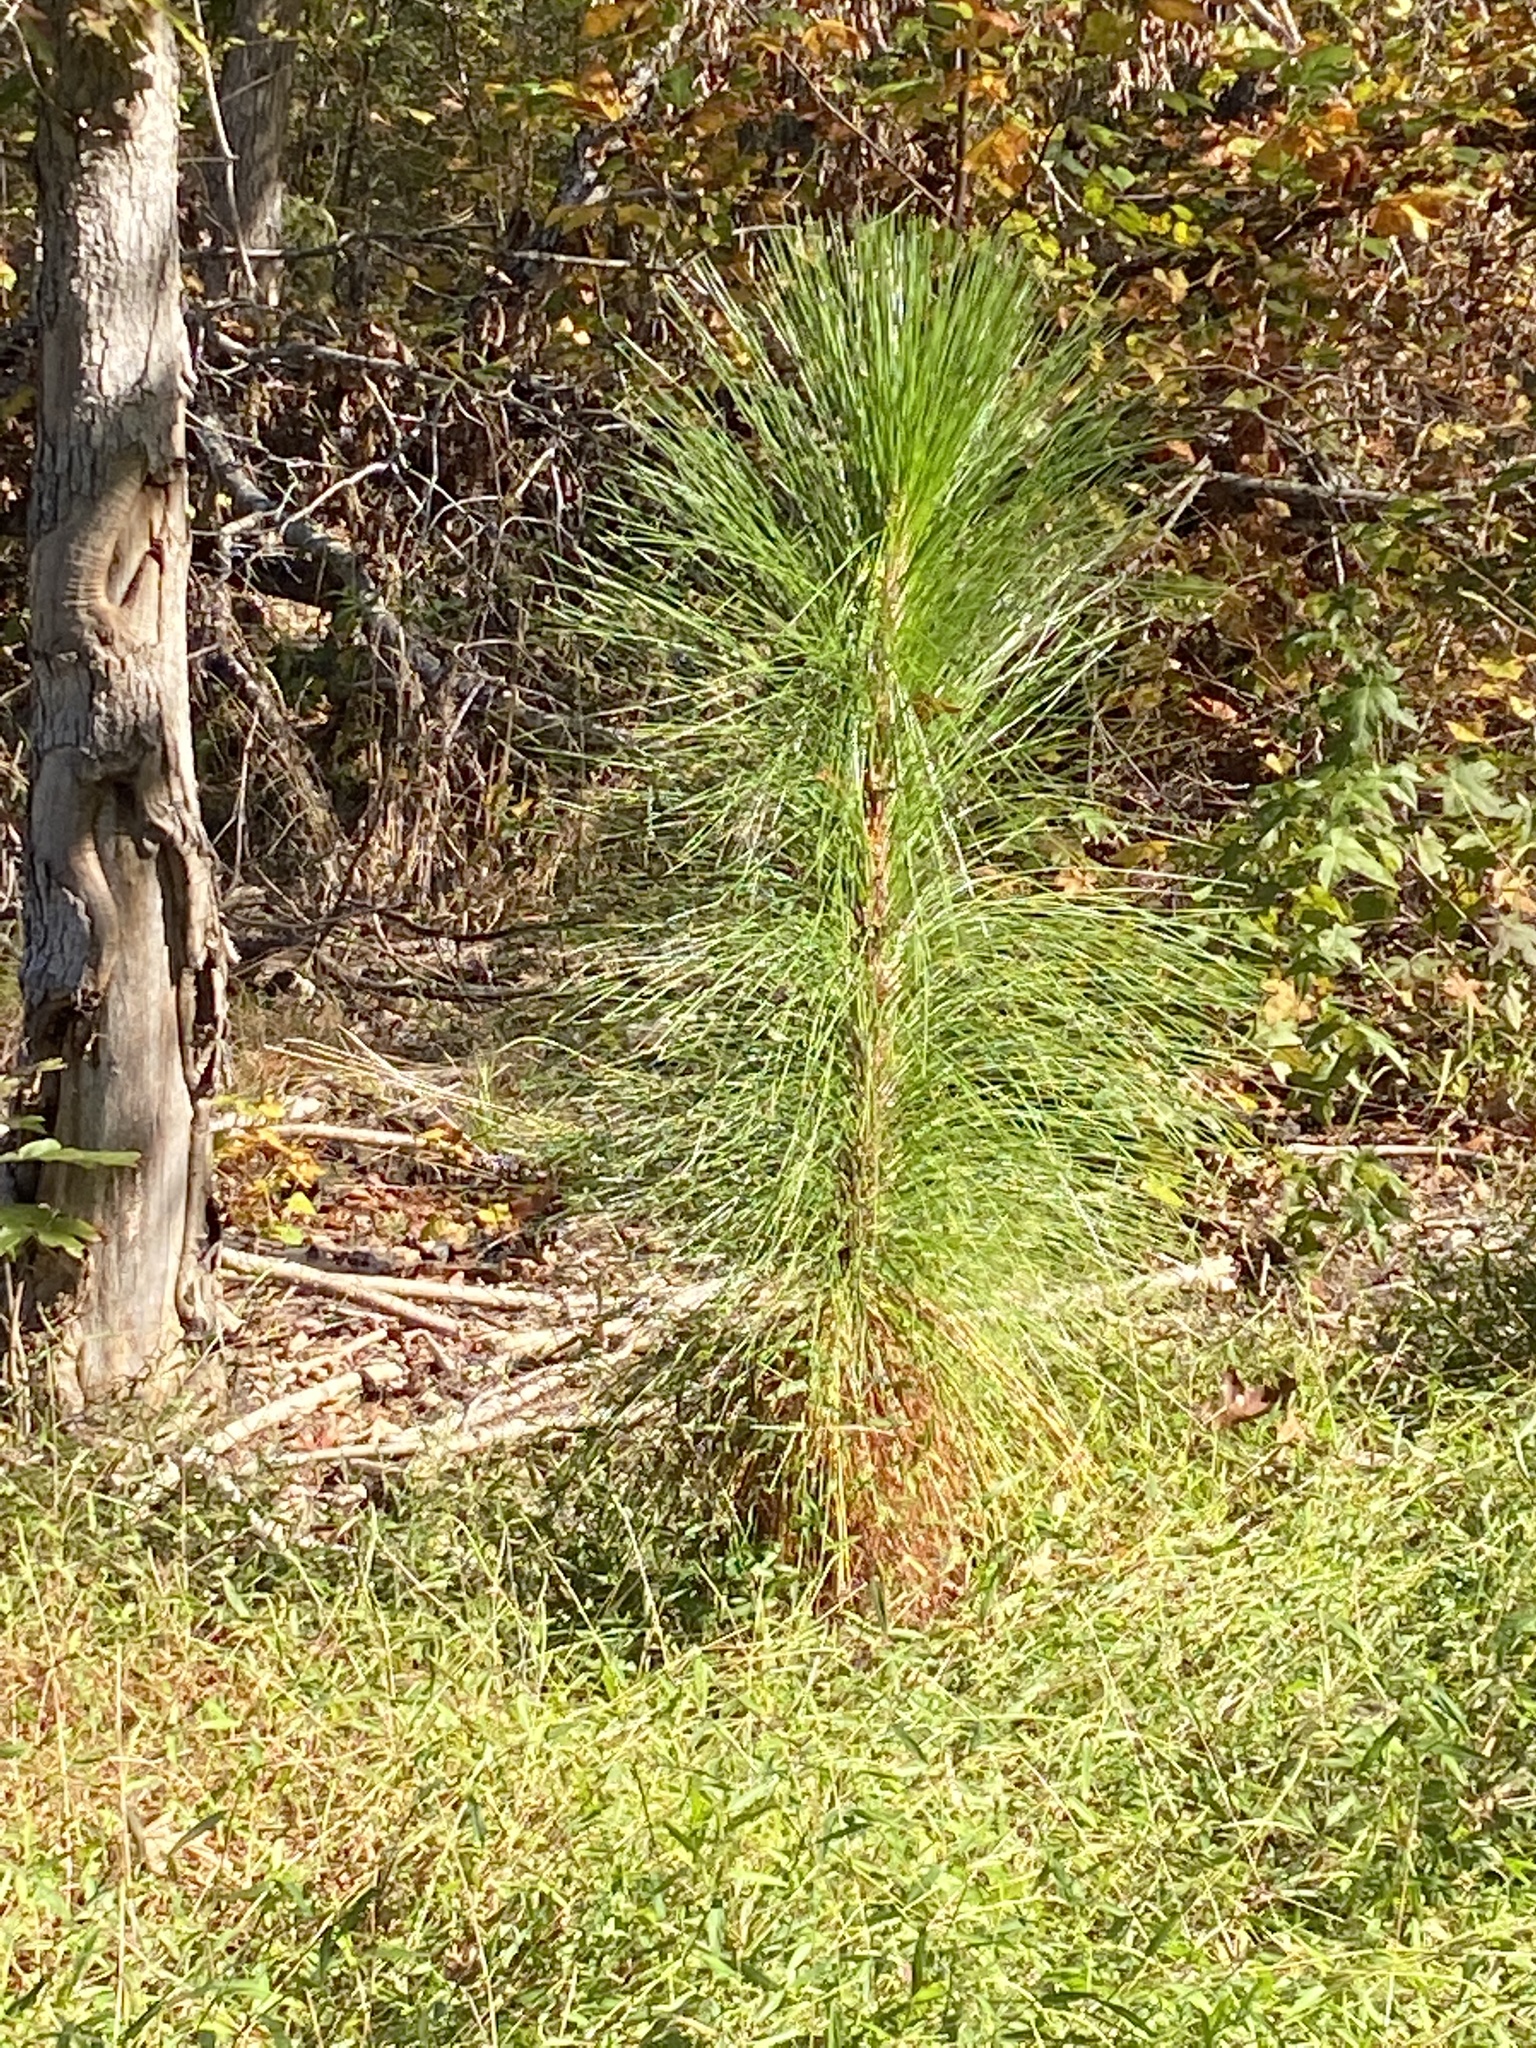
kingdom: Plantae
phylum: Tracheophyta
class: Pinopsida
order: Pinales
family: Pinaceae
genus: Pinus
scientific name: Pinus palustris
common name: Longleaf pine
